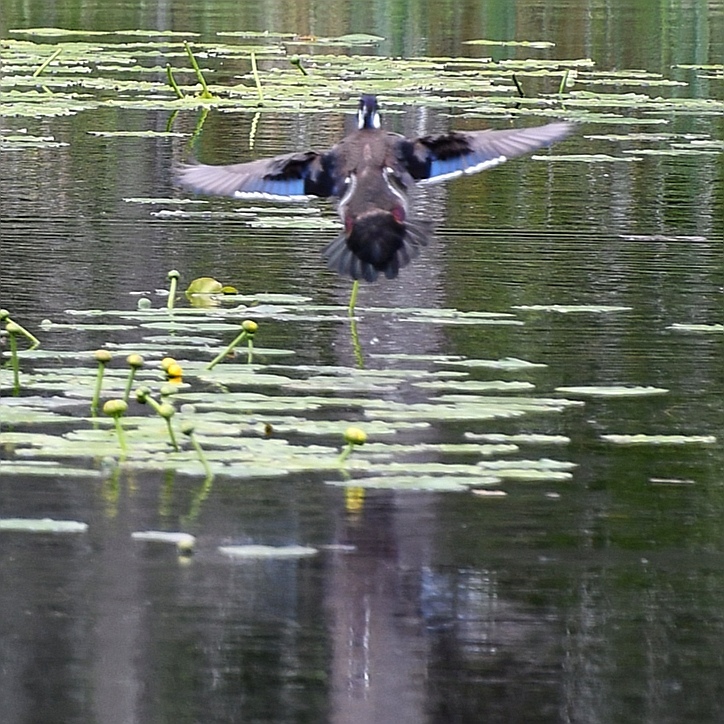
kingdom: Animalia
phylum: Chordata
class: Aves
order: Anseriformes
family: Anatidae
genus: Aix
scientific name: Aix sponsa
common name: Wood duck
